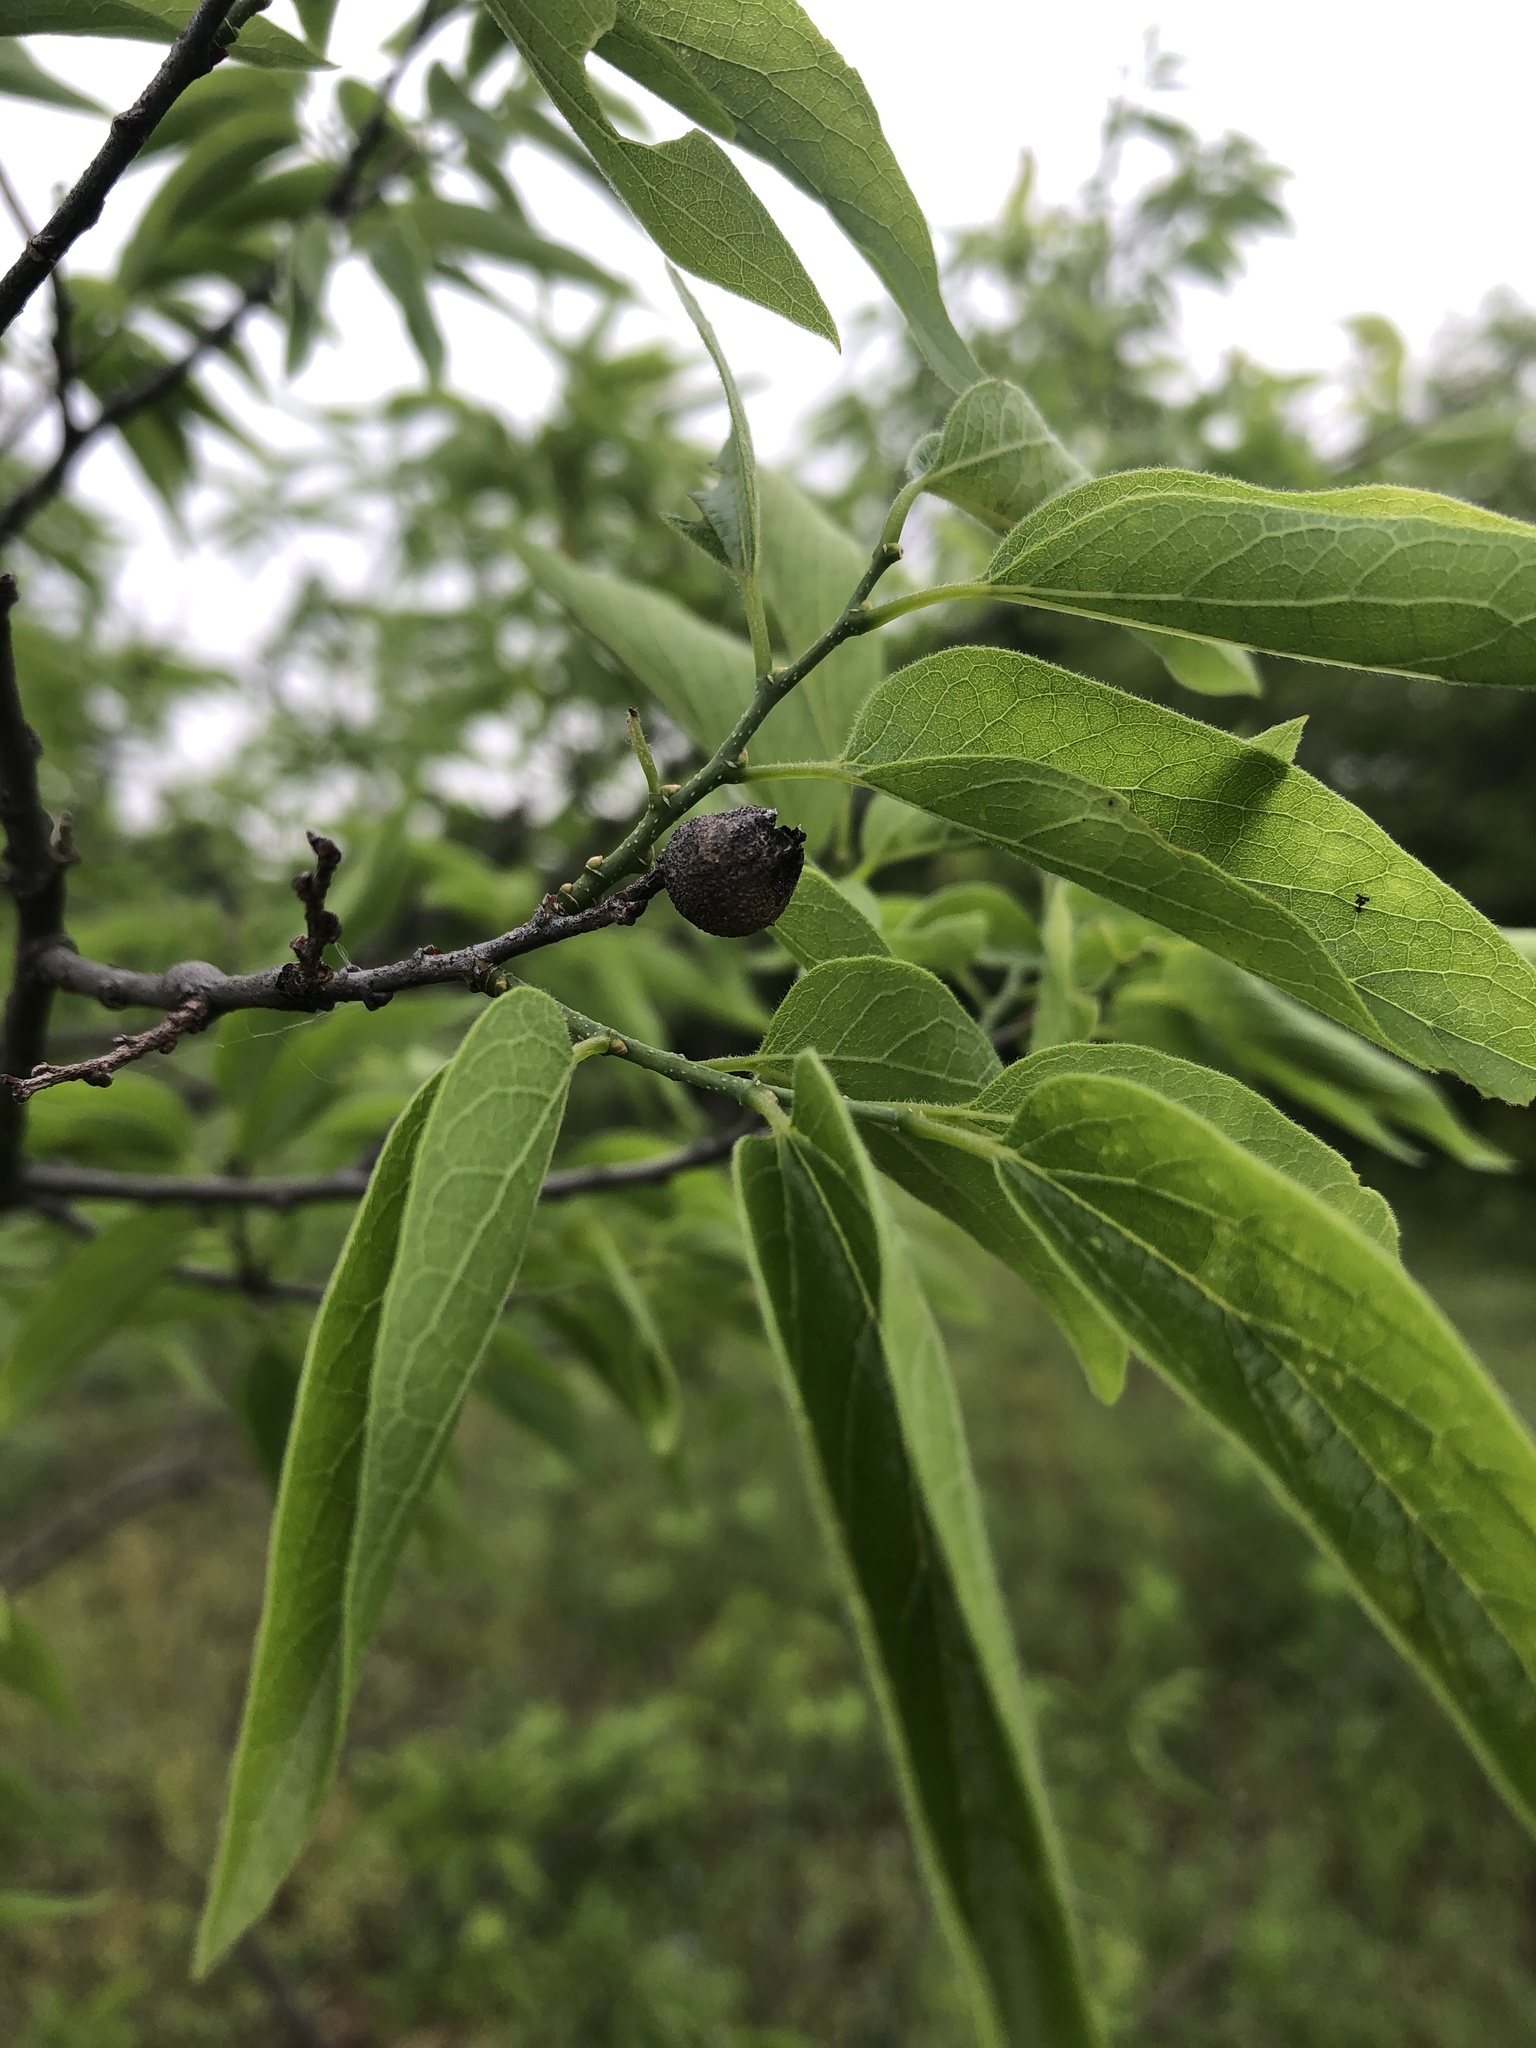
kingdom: Plantae
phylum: Tracheophyta
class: Magnoliopsida
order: Rosales
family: Cannabaceae
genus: Celtis
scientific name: Celtis laevigata
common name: Sugarberry
